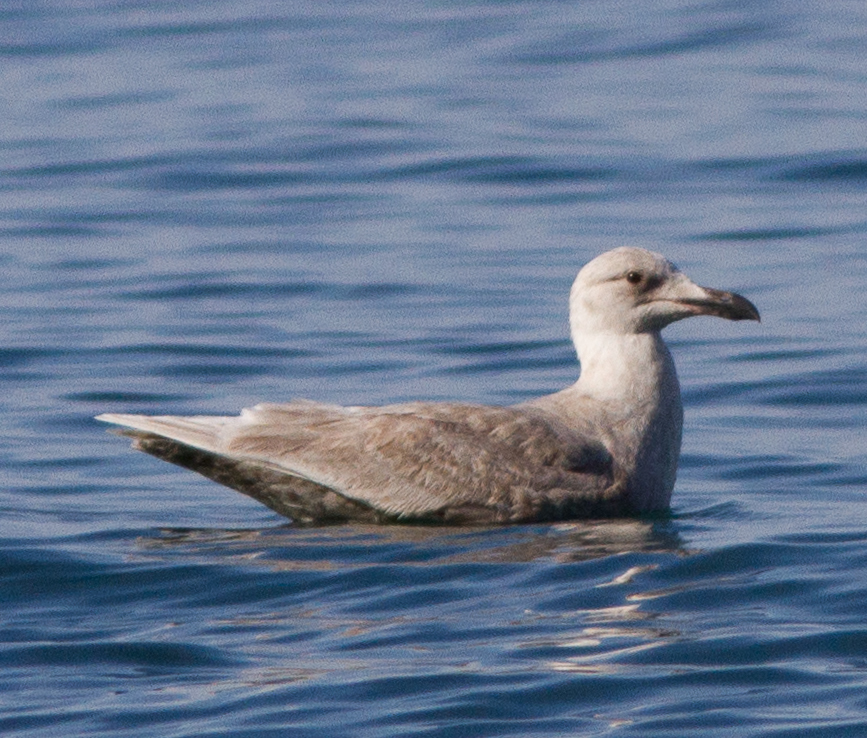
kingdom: Animalia
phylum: Chordata
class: Aves
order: Charadriiformes
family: Laridae
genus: Larus
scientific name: Larus glaucescens
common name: Glaucous-winged gull
